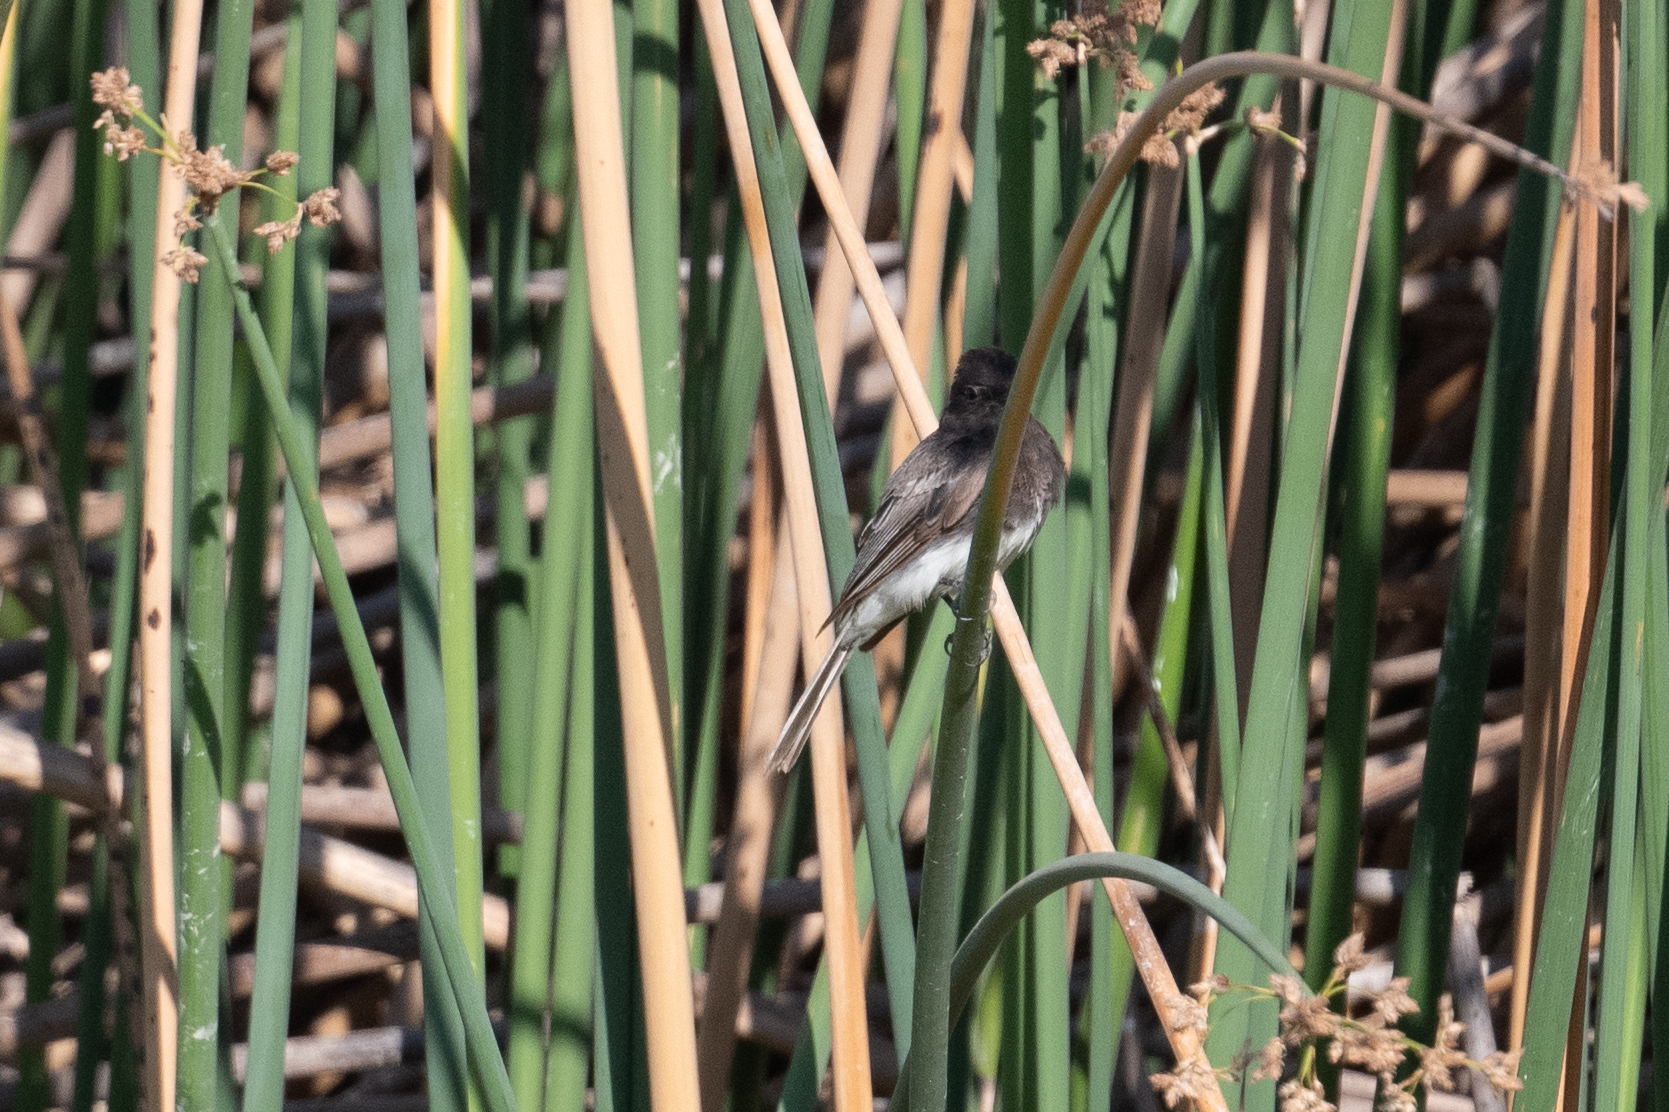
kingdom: Animalia
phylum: Chordata
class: Aves
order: Passeriformes
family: Tyrannidae
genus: Sayornis
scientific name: Sayornis nigricans
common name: Black phoebe
